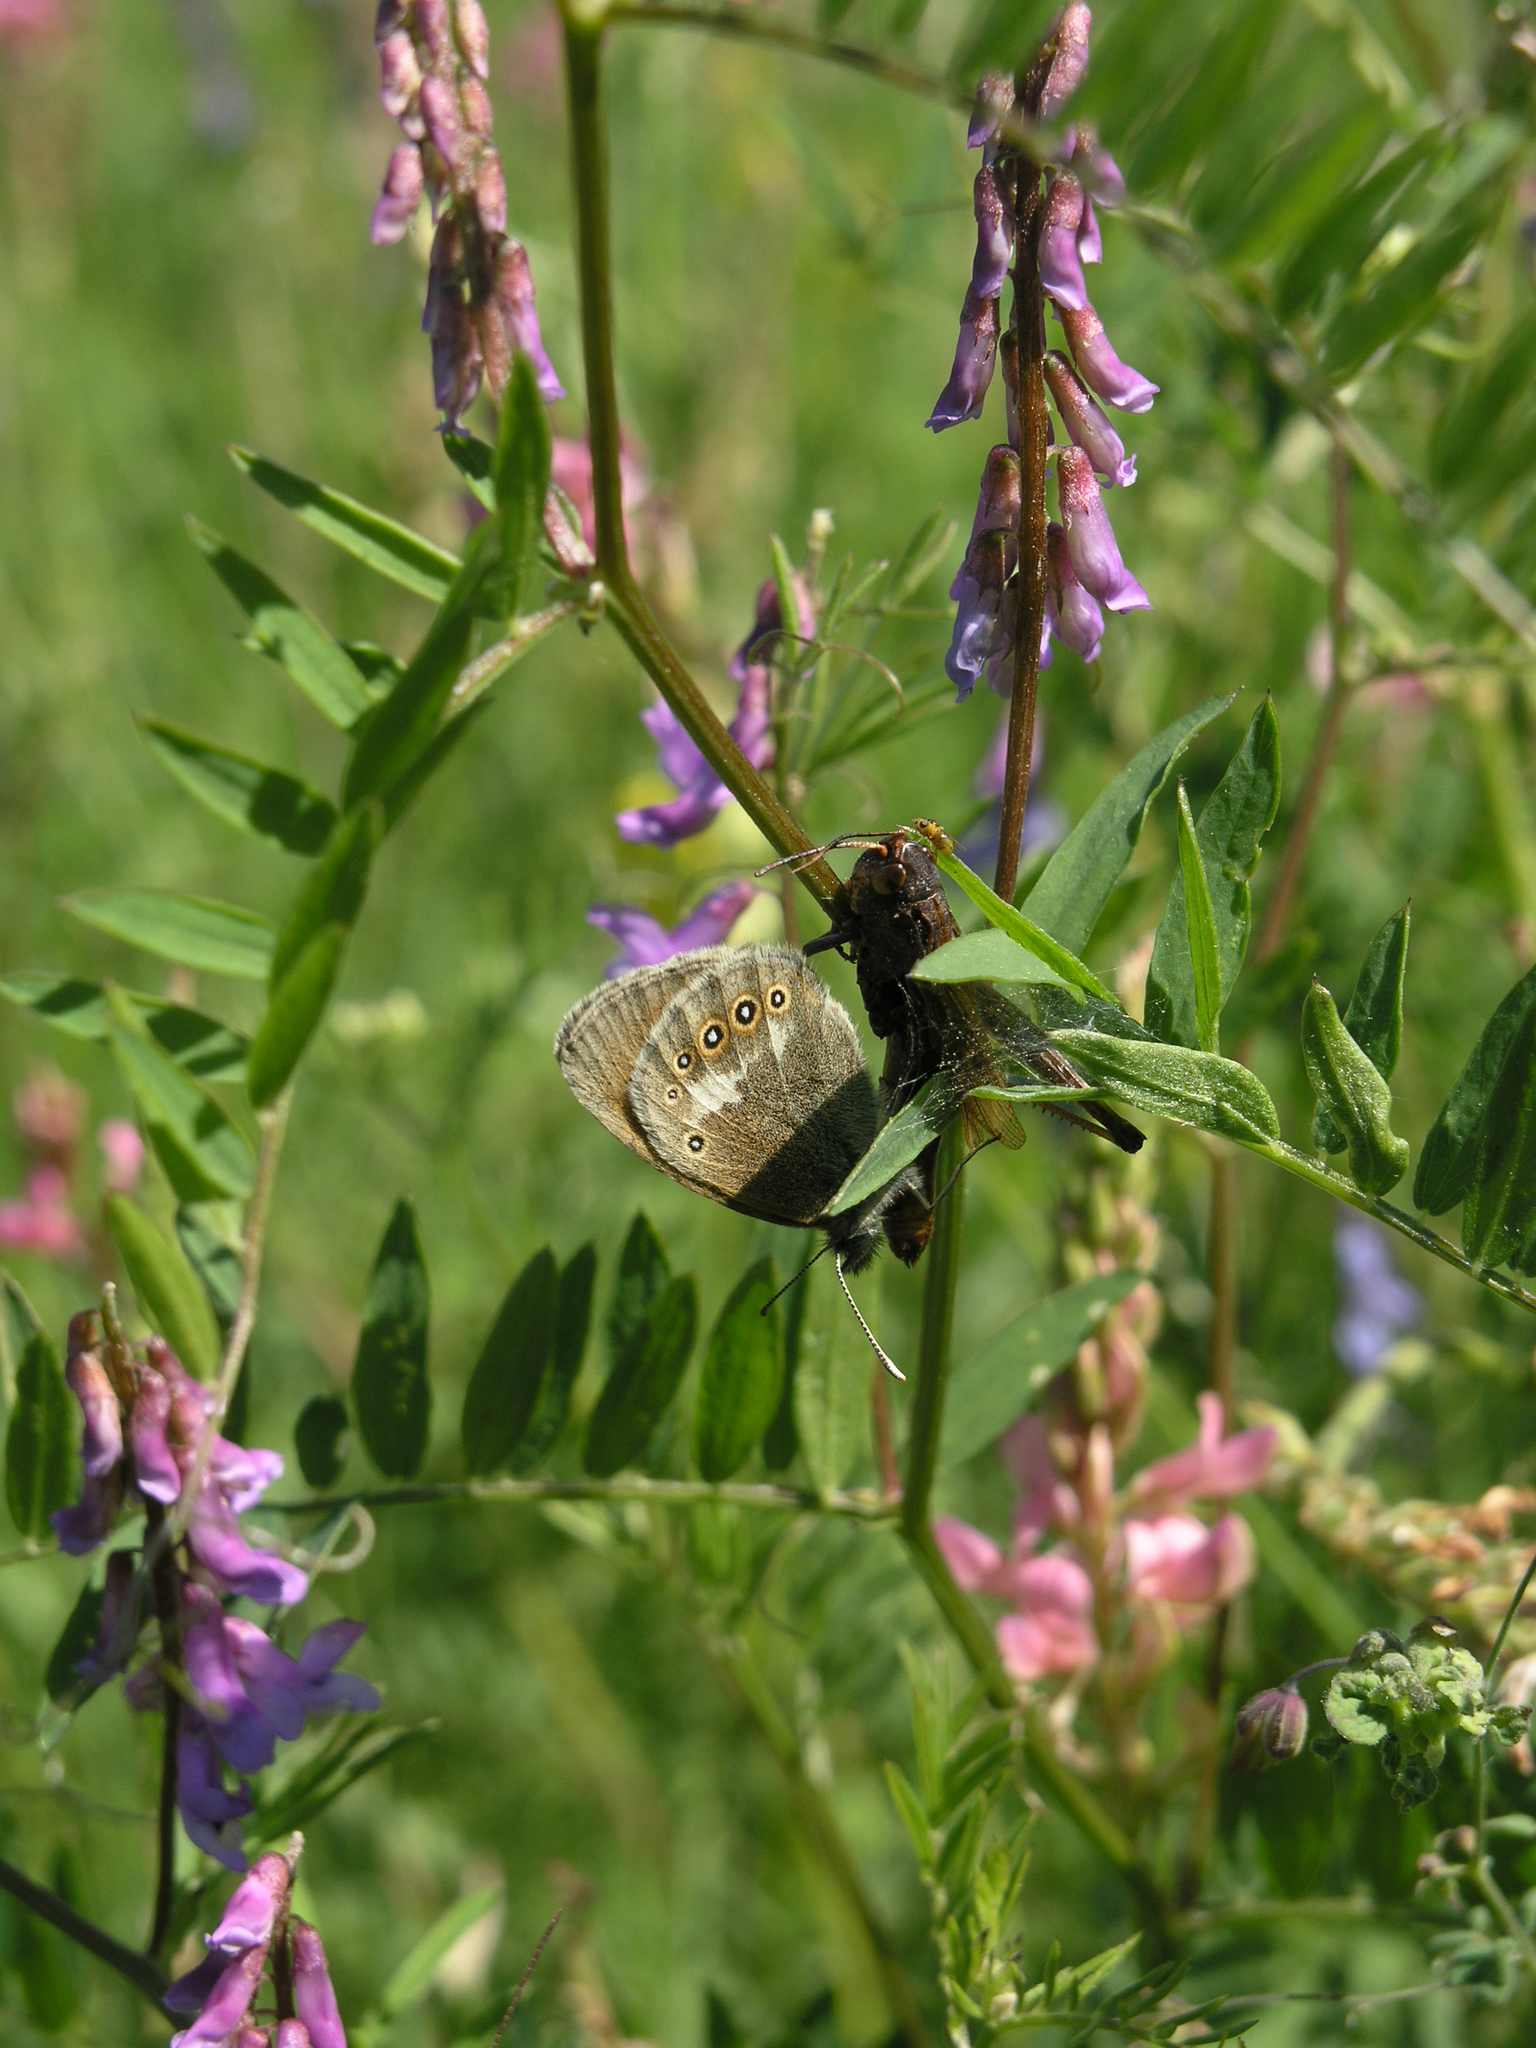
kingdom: Animalia
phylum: Arthropoda
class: Insecta
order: Lepidoptera
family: Nymphalidae
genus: Coenonympha
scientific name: Coenonympha iphis
